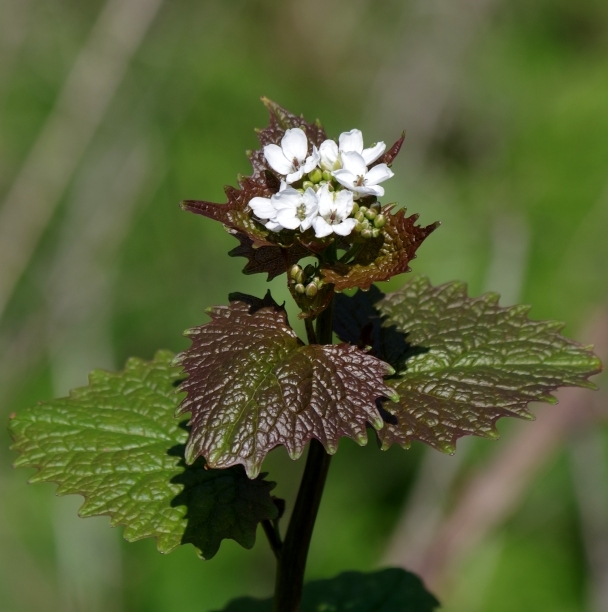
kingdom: Plantae
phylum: Tracheophyta
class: Magnoliopsida
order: Brassicales
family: Brassicaceae
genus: Alliaria
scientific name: Alliaria petiolata
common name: Garlic mustard
